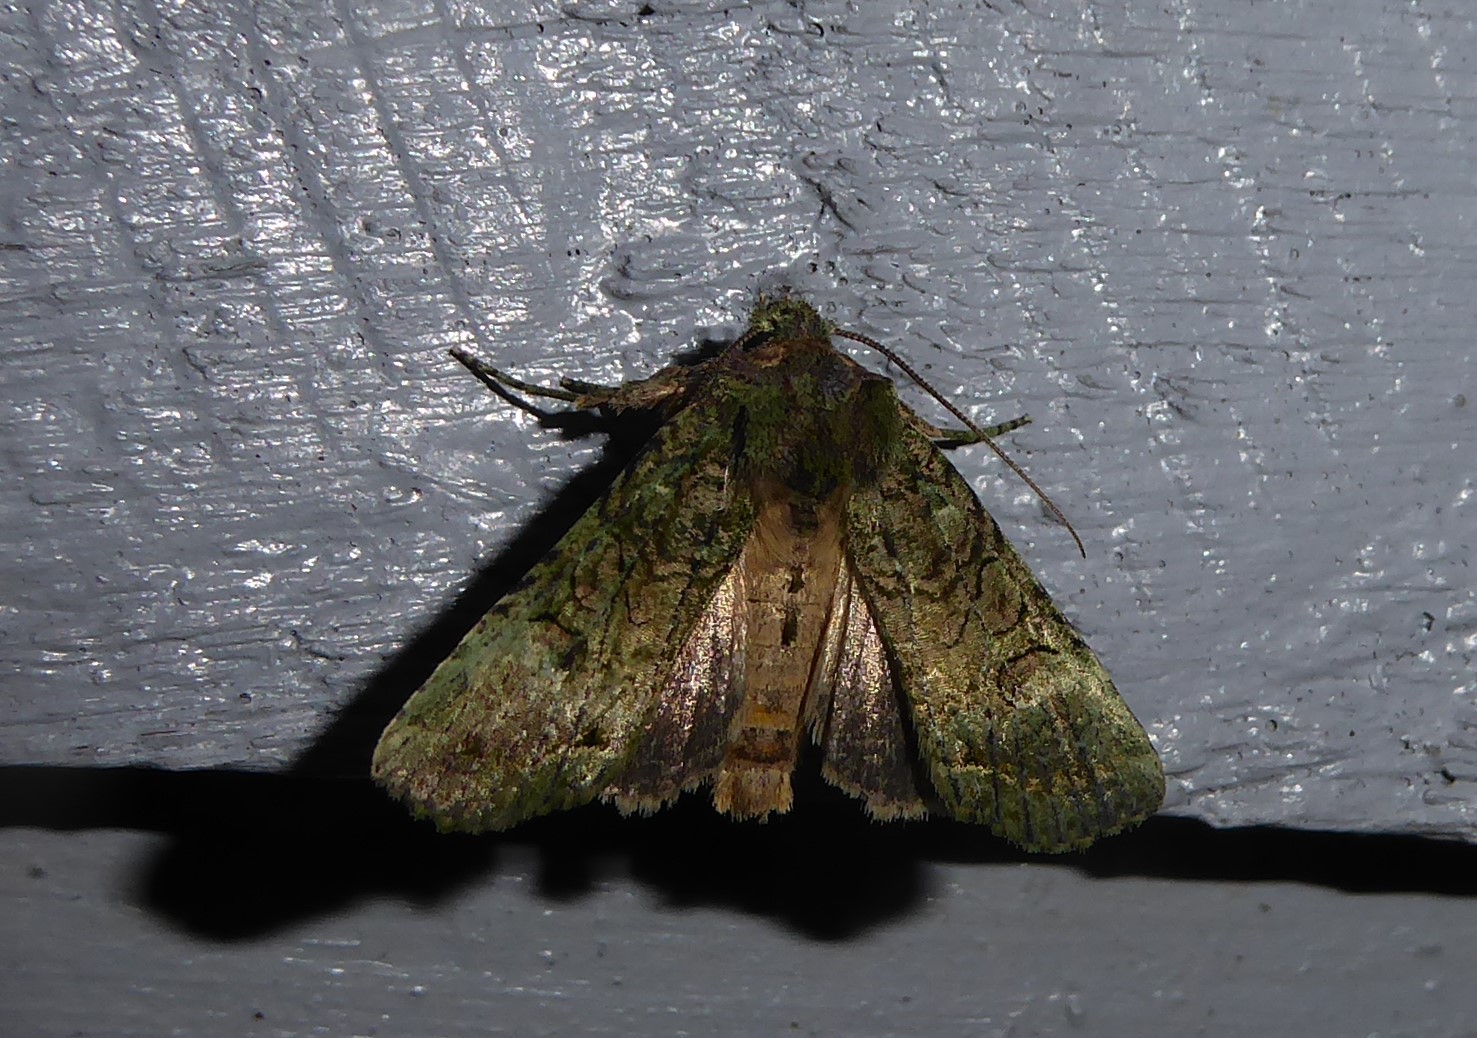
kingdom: Animalia
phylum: Arthropoda
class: Insecta
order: Lepidoptera
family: Noctuidae
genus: Meterana
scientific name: Meterana levis
